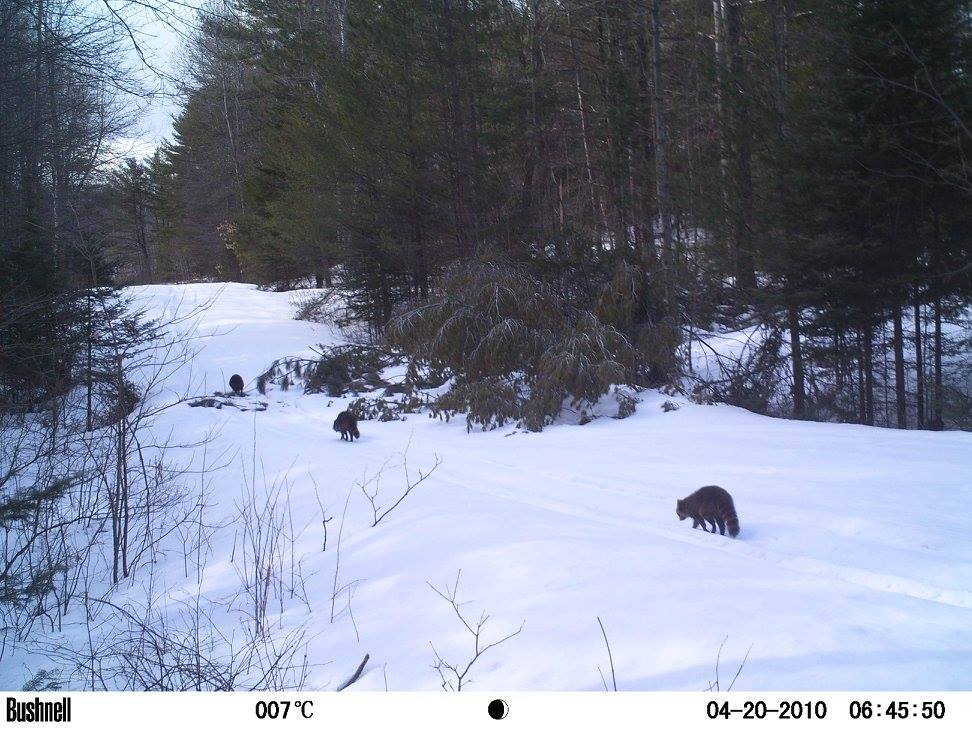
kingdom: Animalia
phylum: Chordata
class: Mammalia
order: Carnivora
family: Procyonidae
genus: Procyon
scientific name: Procyon lotor
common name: Raccoon
